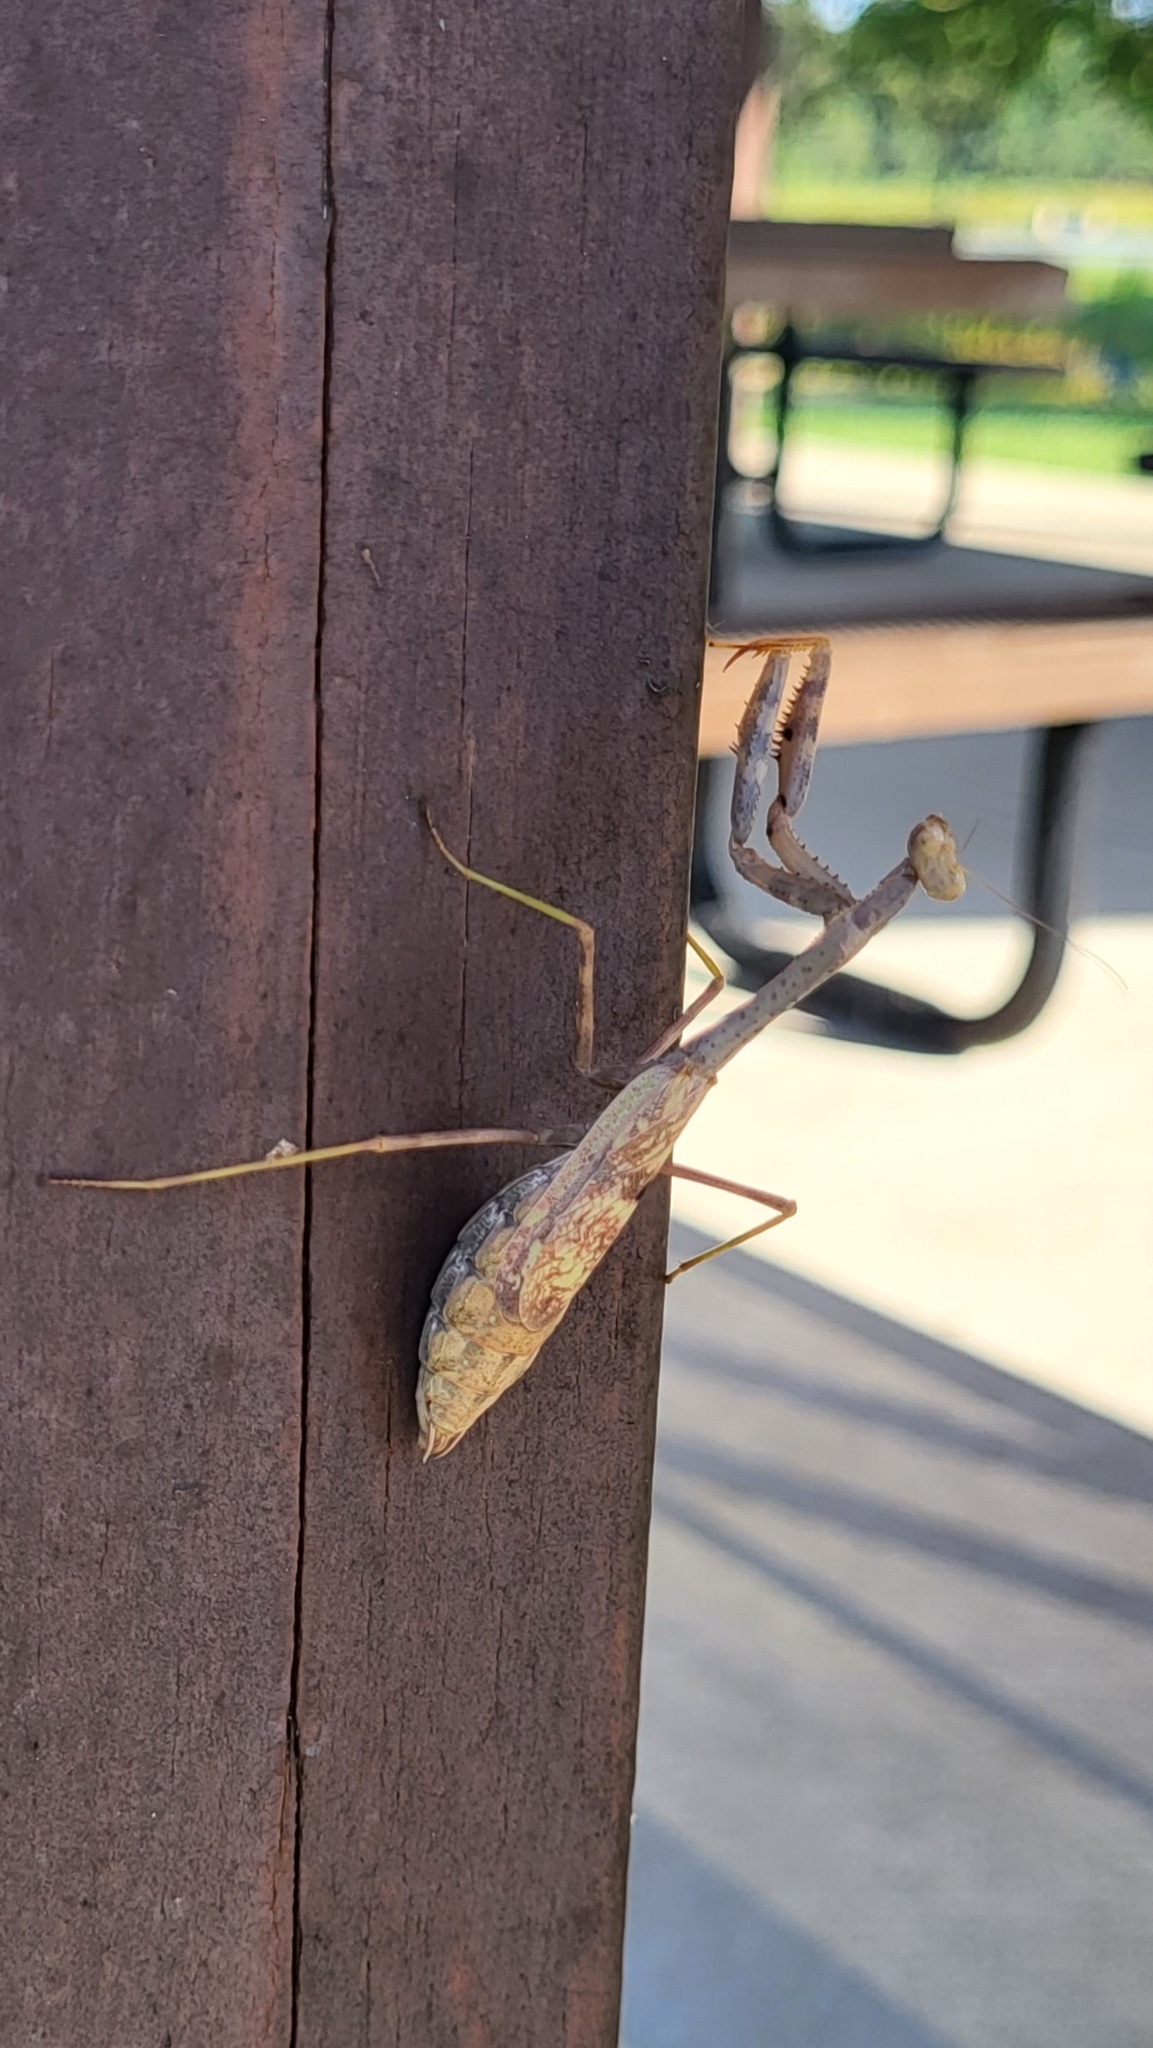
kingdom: Animalia
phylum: Arthropoda
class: Insecta
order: Mantodea
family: Mantidae
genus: Stagmomantis
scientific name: Stagmomantis carolina
